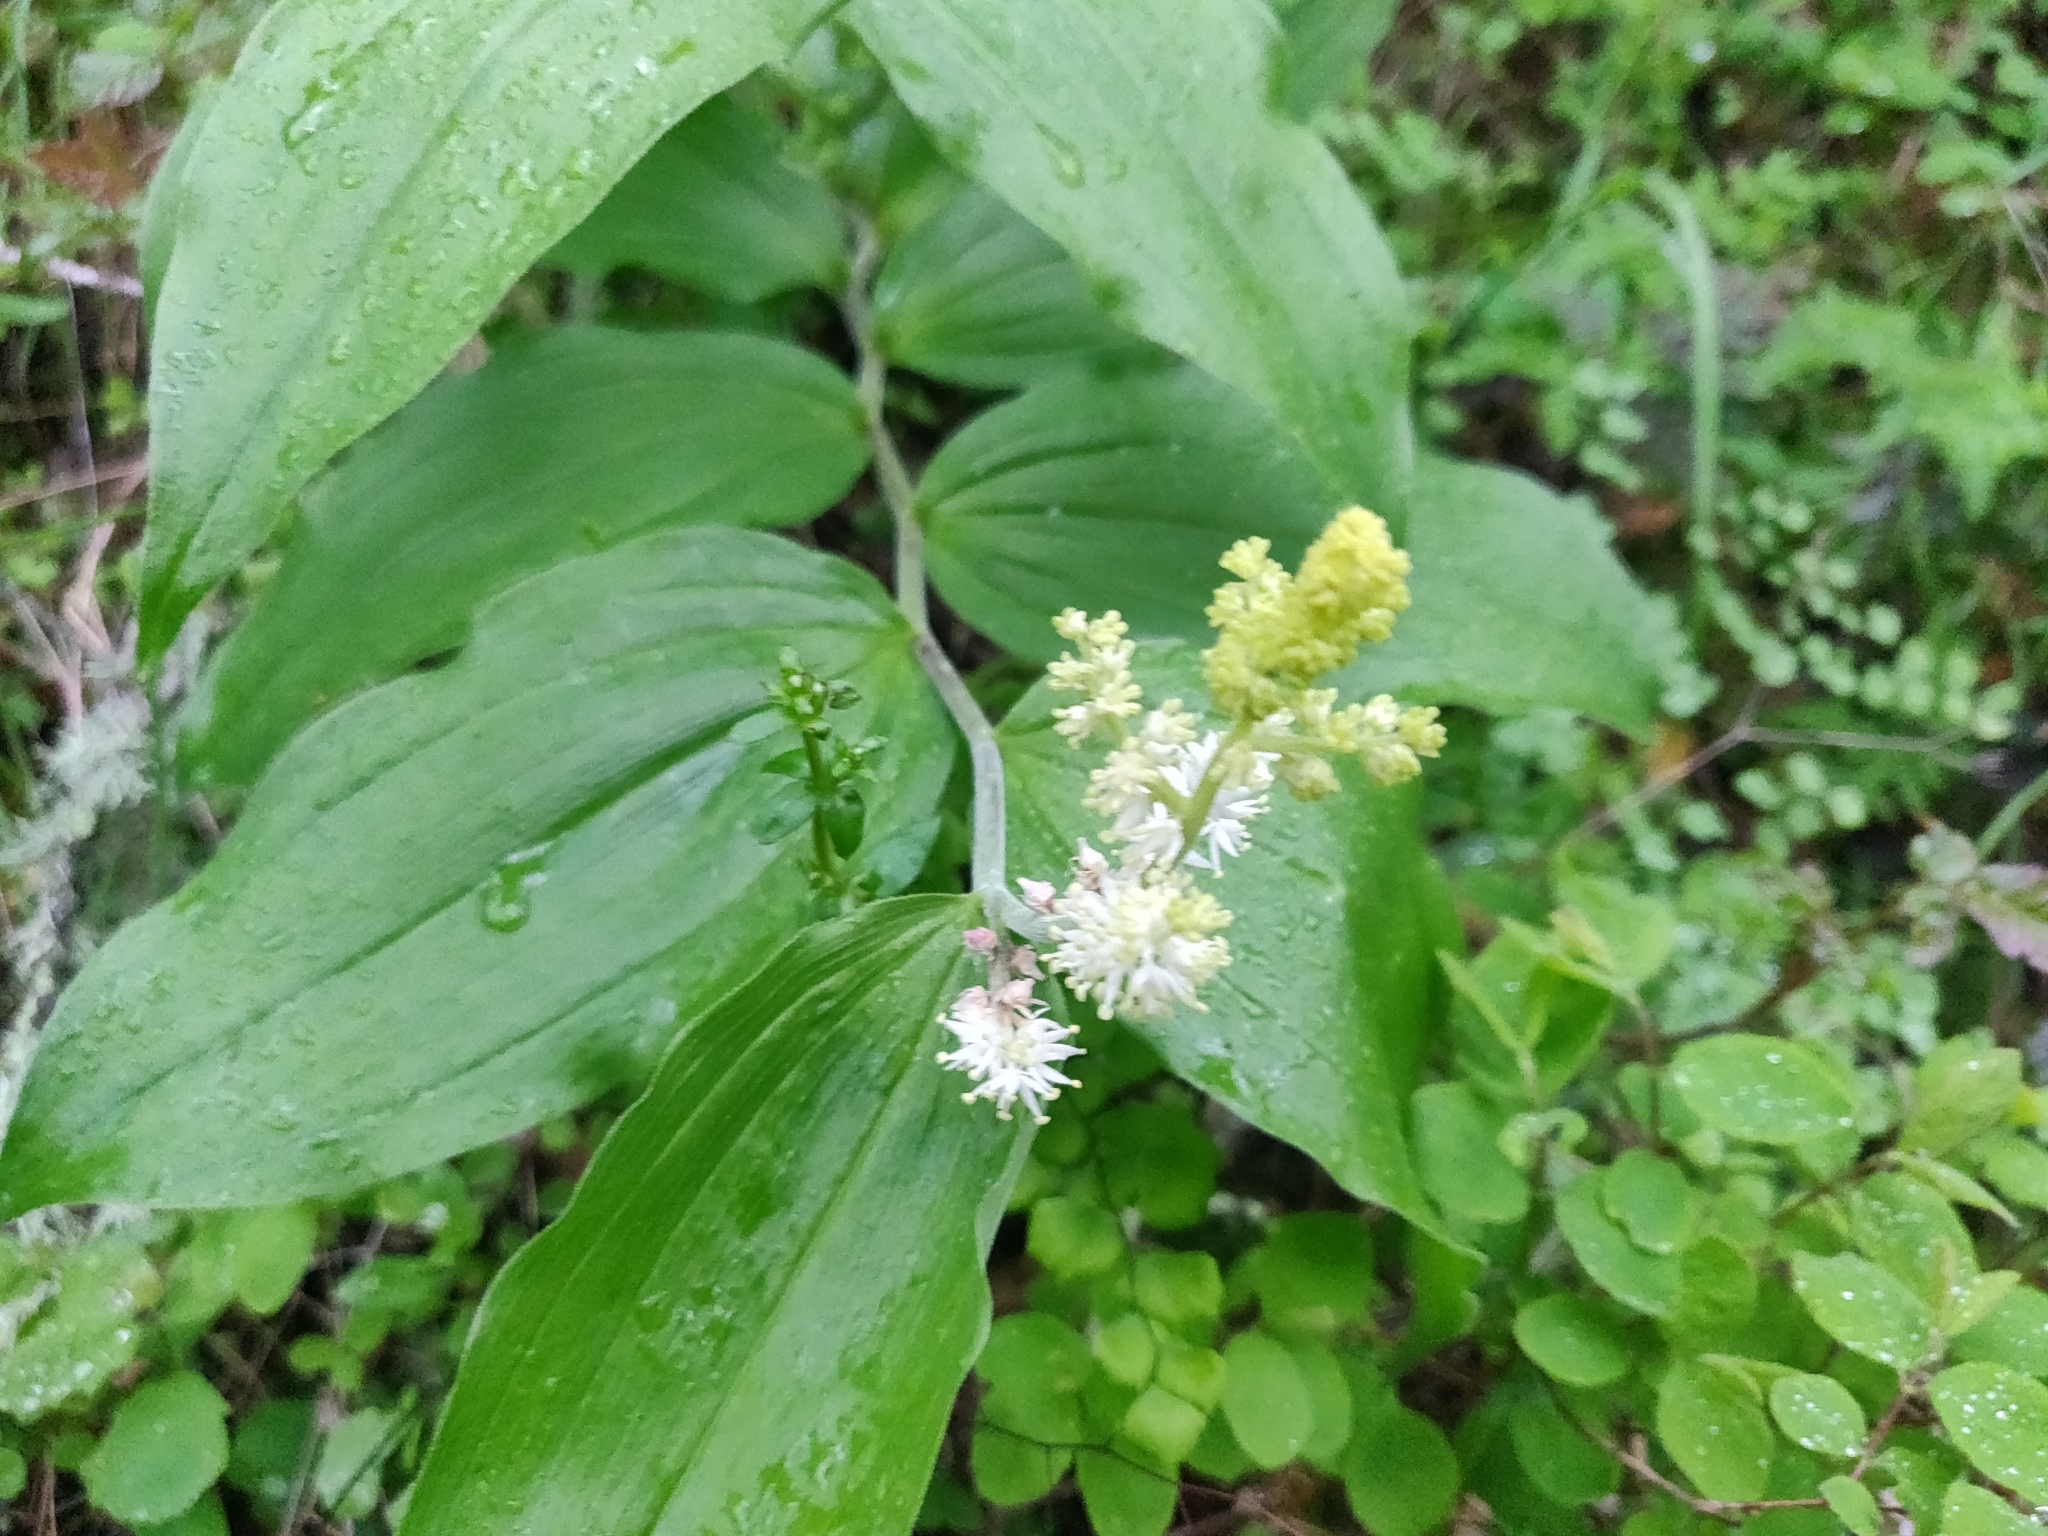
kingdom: Plantae
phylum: Tracheophyta
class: Liliopsida
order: Asparagales
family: Asparagaceae
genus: Maianthemum
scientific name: Maianthemum racemosum
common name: False spikenard
